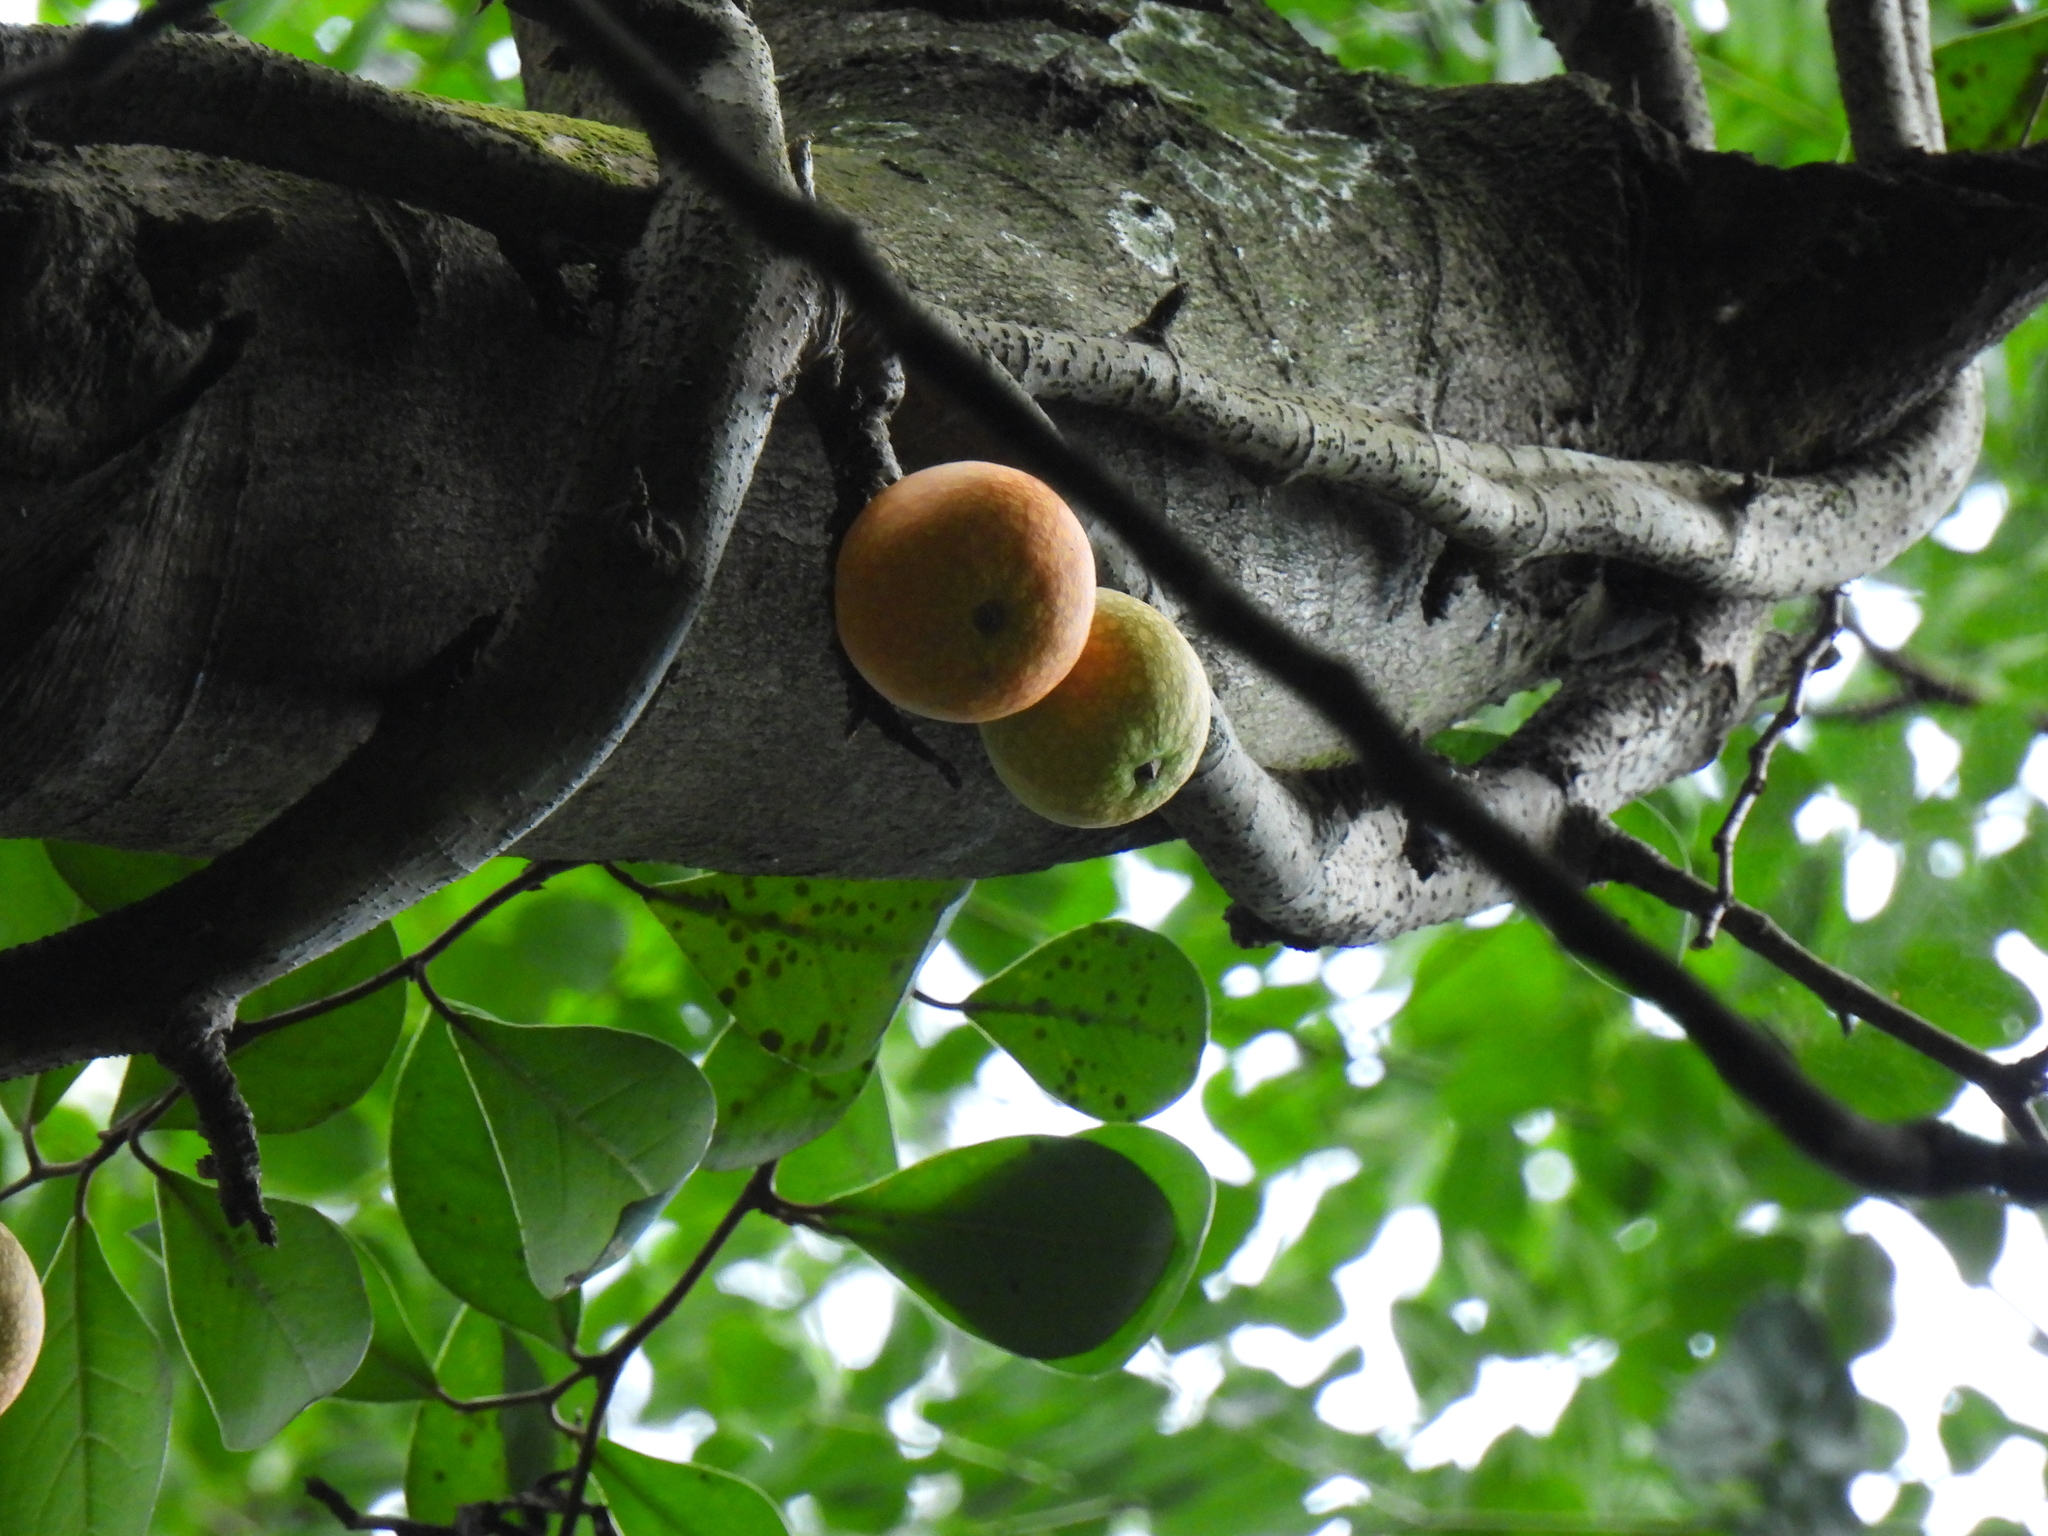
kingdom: Plantae
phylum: Tracheophyta
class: Magnoliopsida
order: Rosales
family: Moraceae
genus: Ficus
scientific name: Ficus punctata
